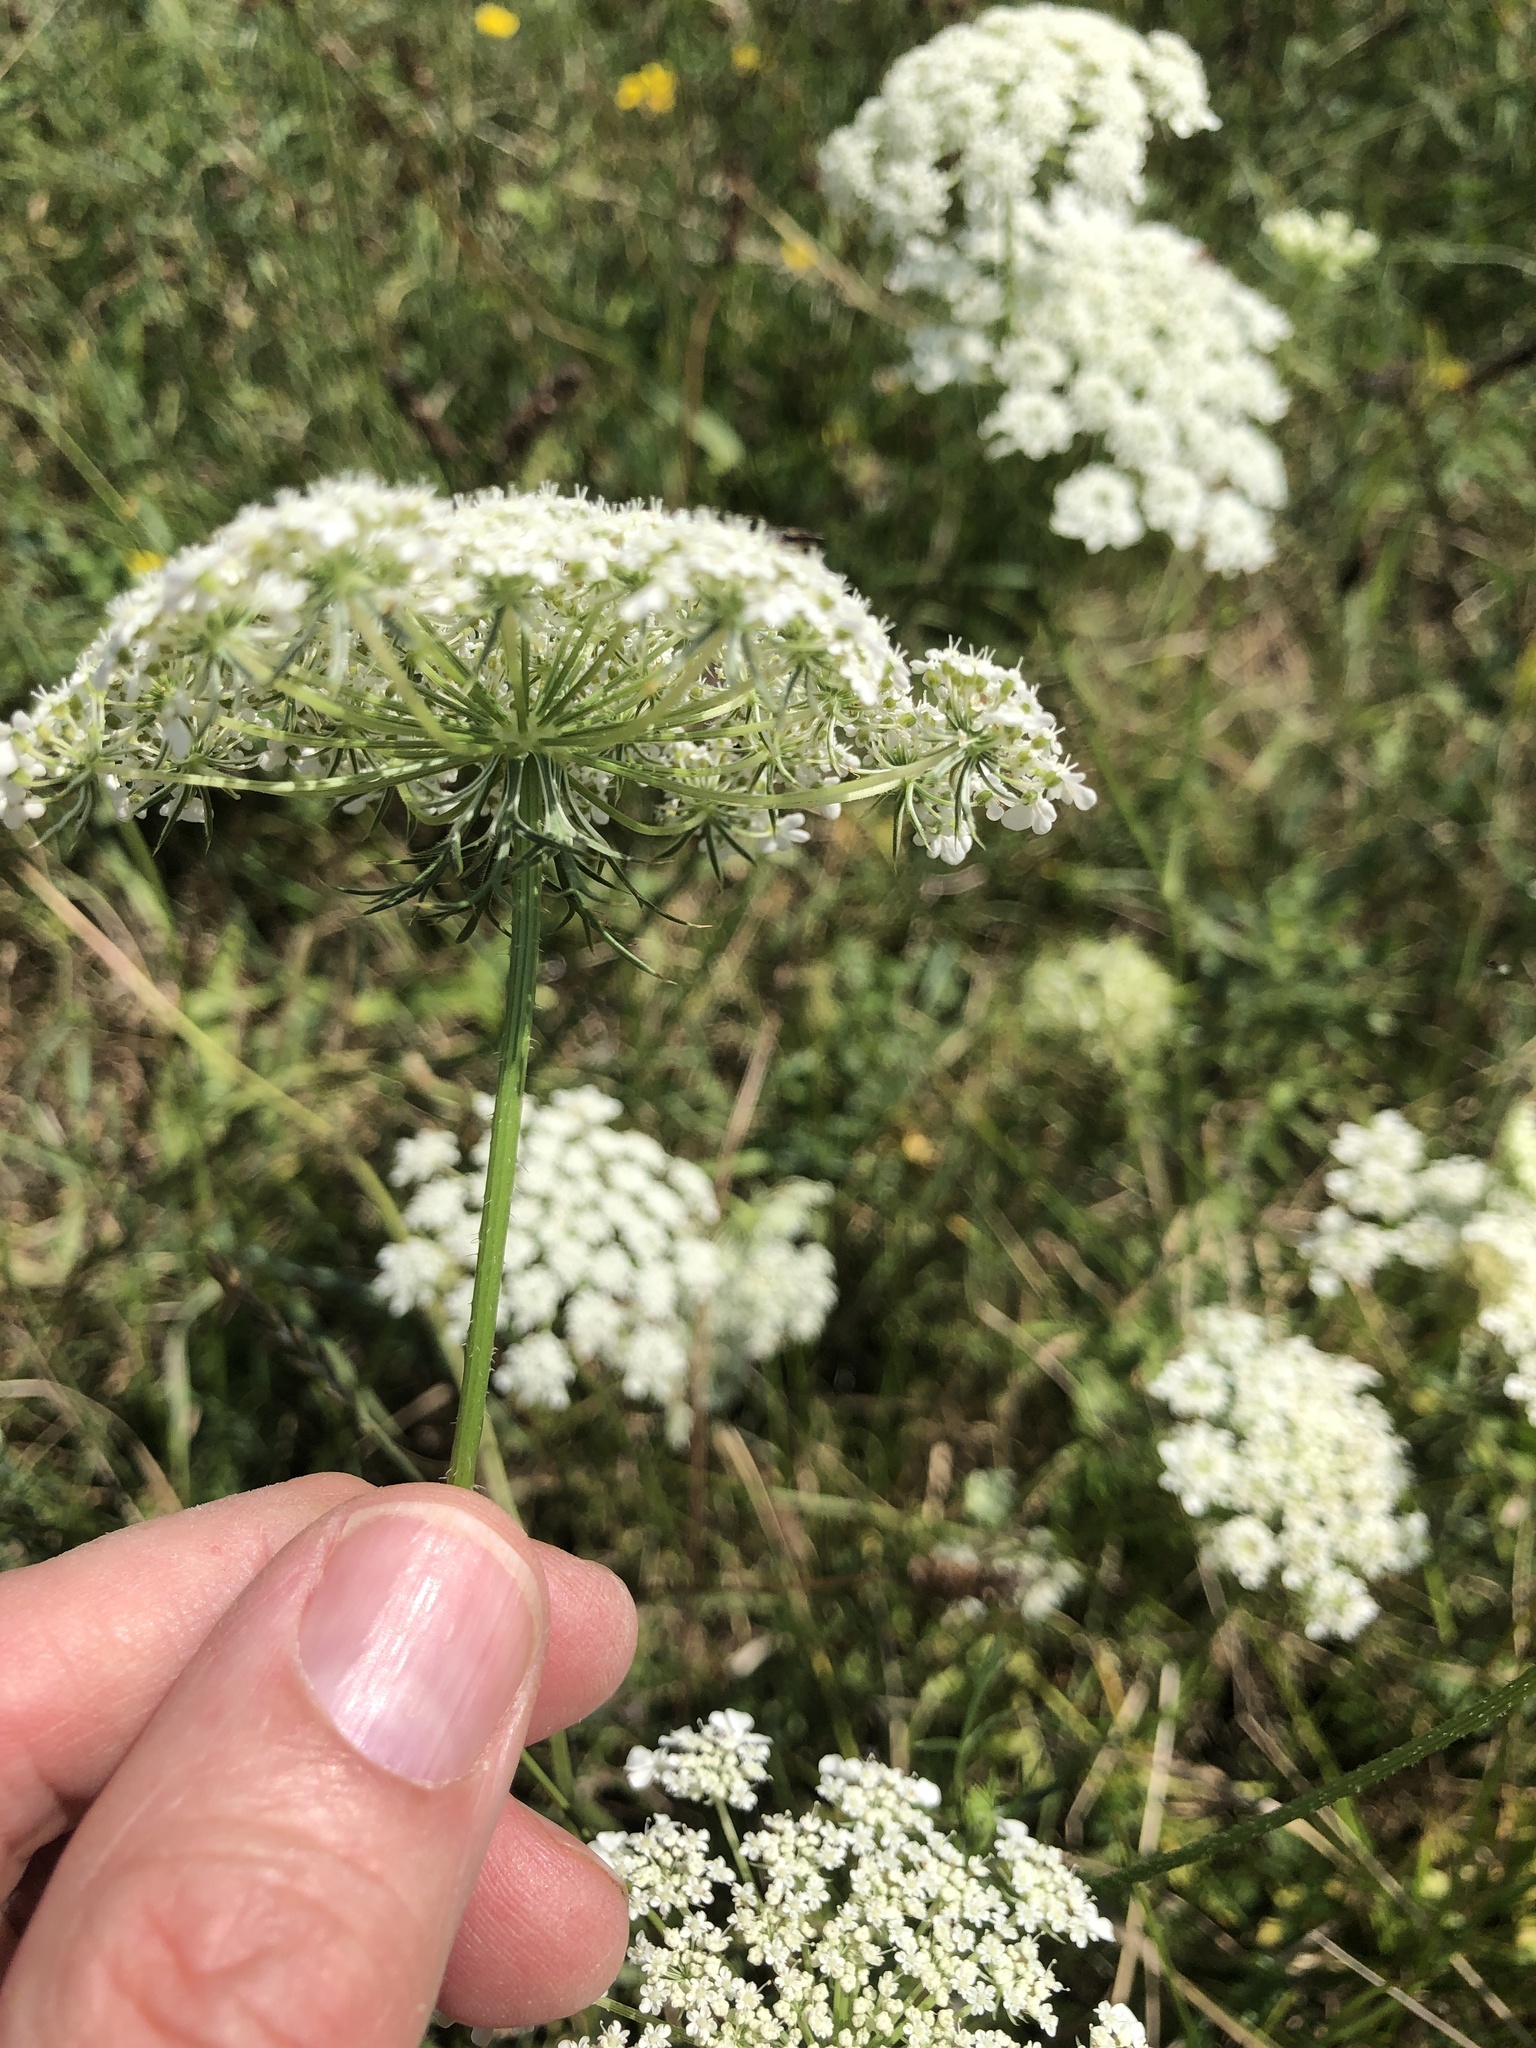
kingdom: Plantae
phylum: Tracheophyta
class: Magnoliopsida
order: Apiales
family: Apiaceae
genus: Daucus
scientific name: Daucus carota
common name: Wild carrot
